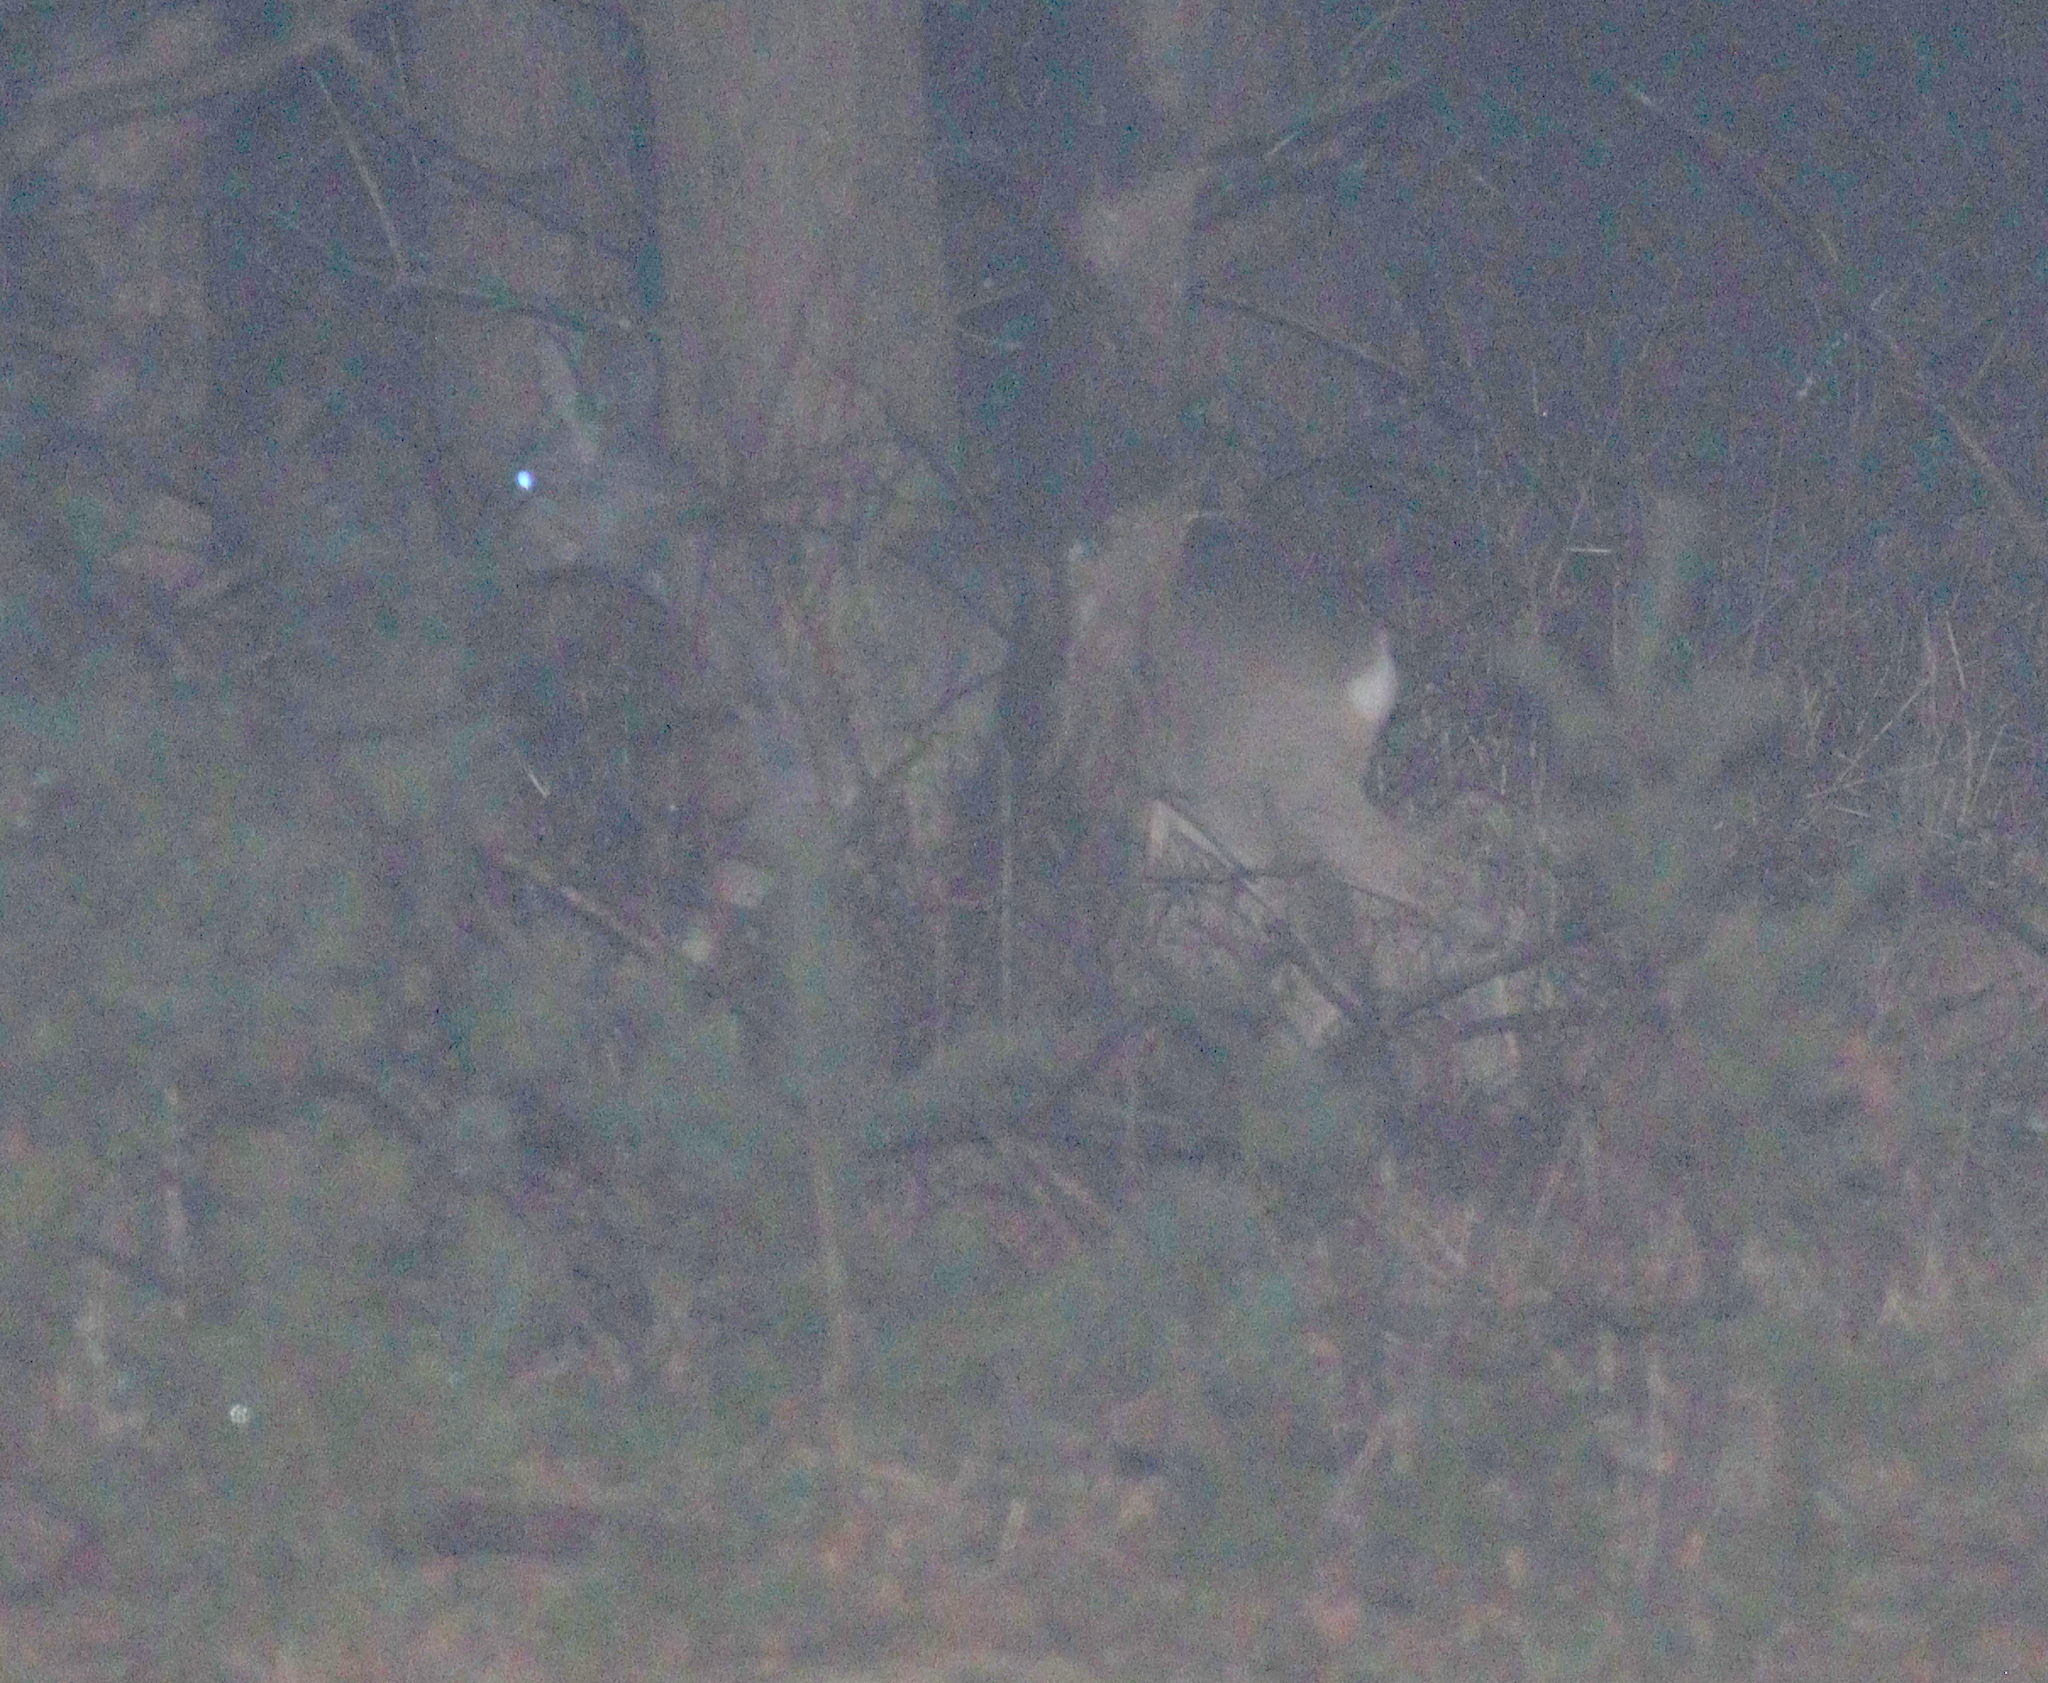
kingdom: Animalia
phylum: Chordata
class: Mammalia
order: Artiodactyla
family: Cervidae
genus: Capreolus
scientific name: Capreolus capreolus
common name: Western roe deer
